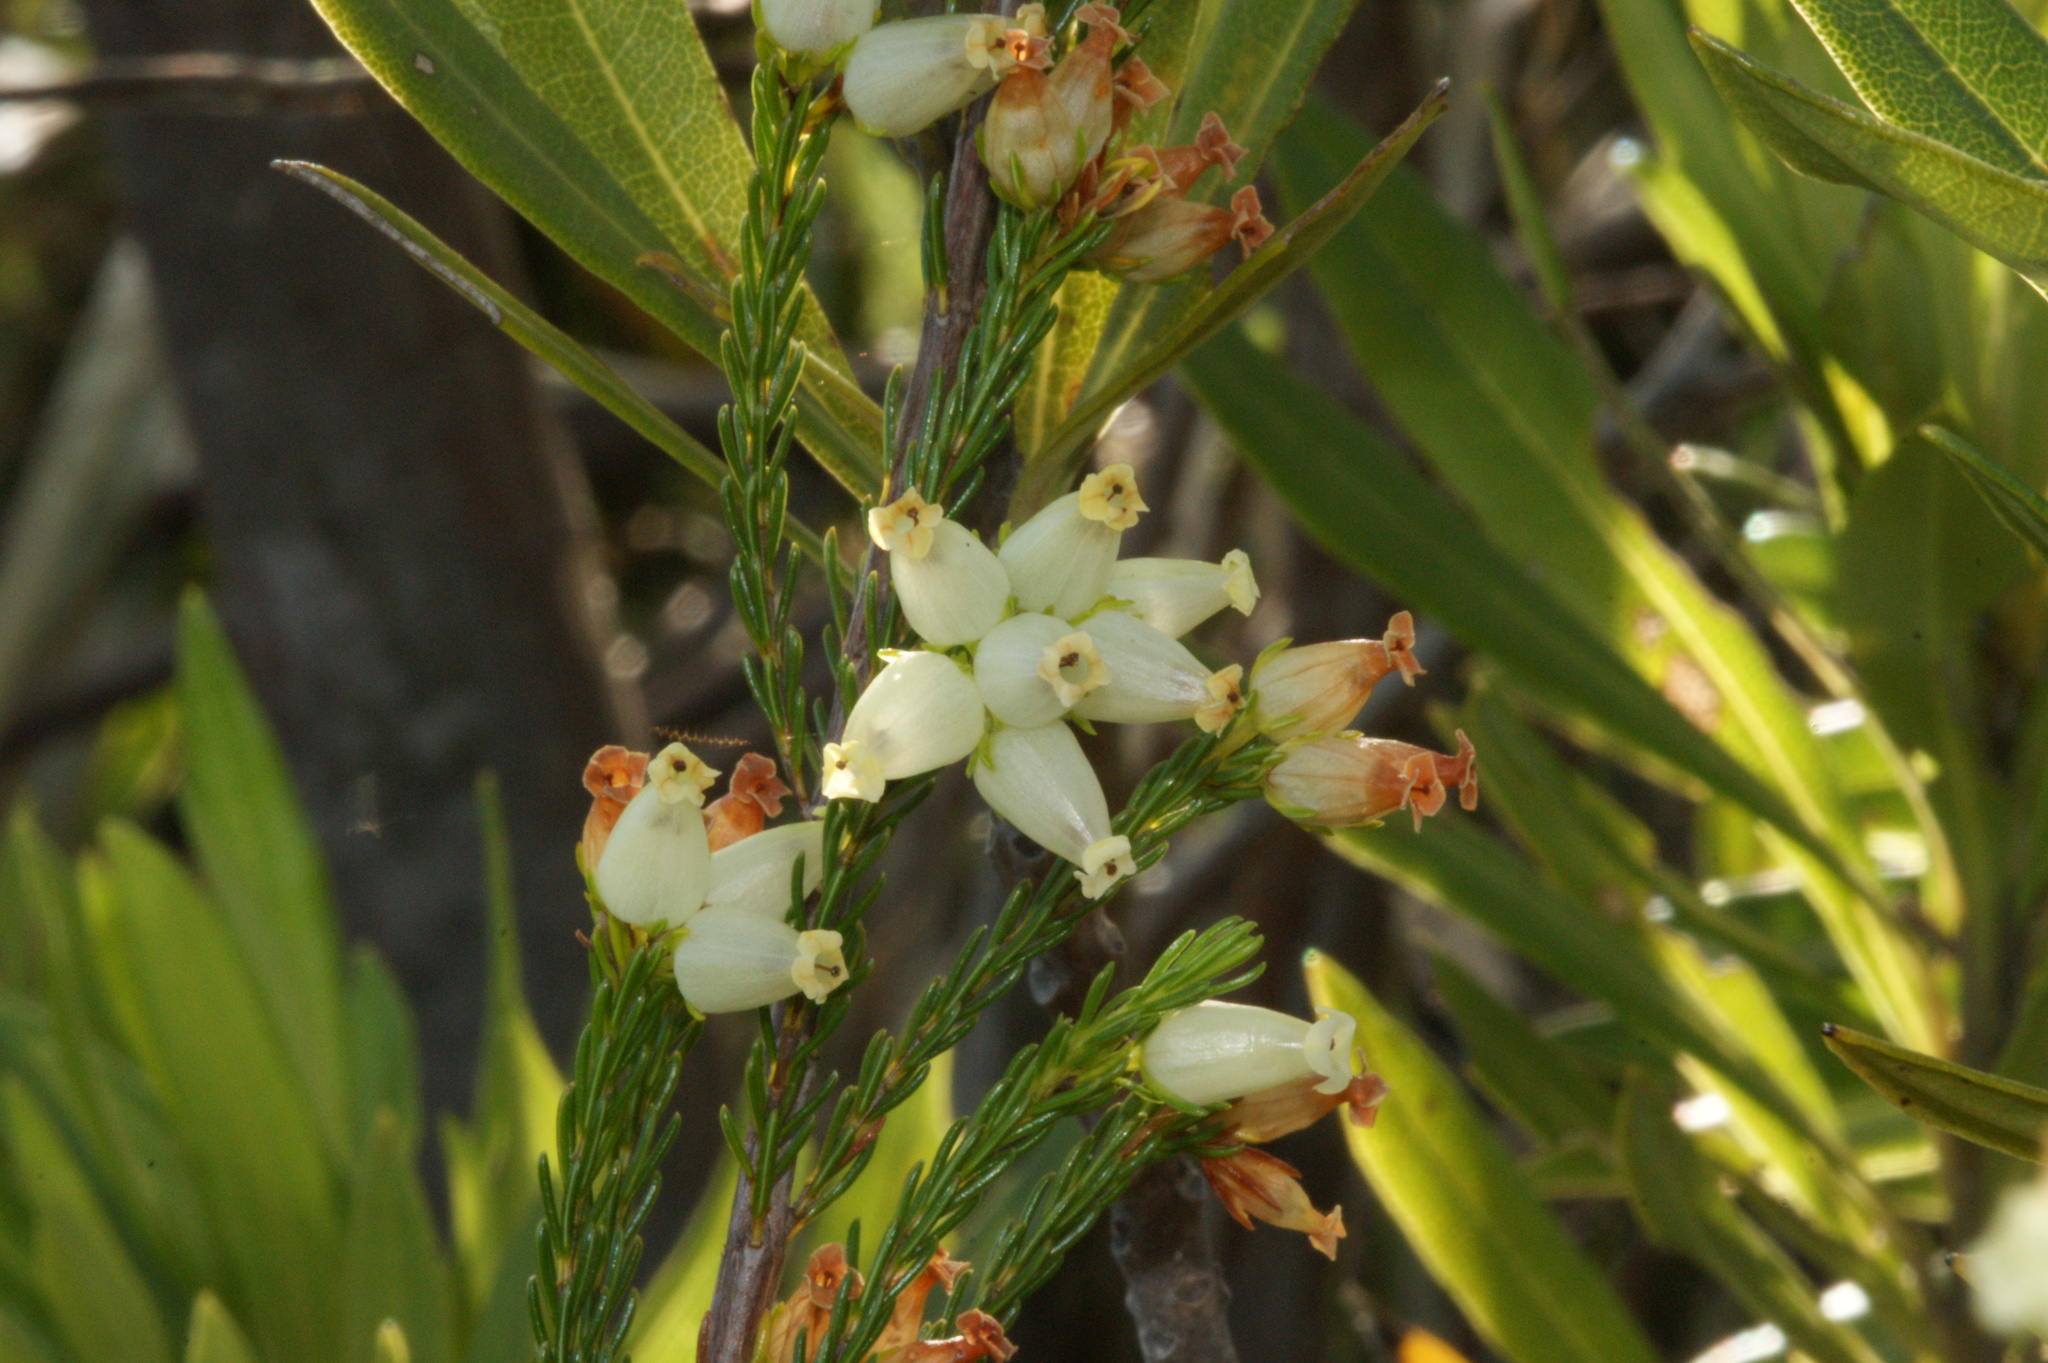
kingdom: Plantae
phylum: Tracheophyta
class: Magnoliopsida
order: Ericales
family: Ericaceae
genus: Erica
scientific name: Erica daphniflora
